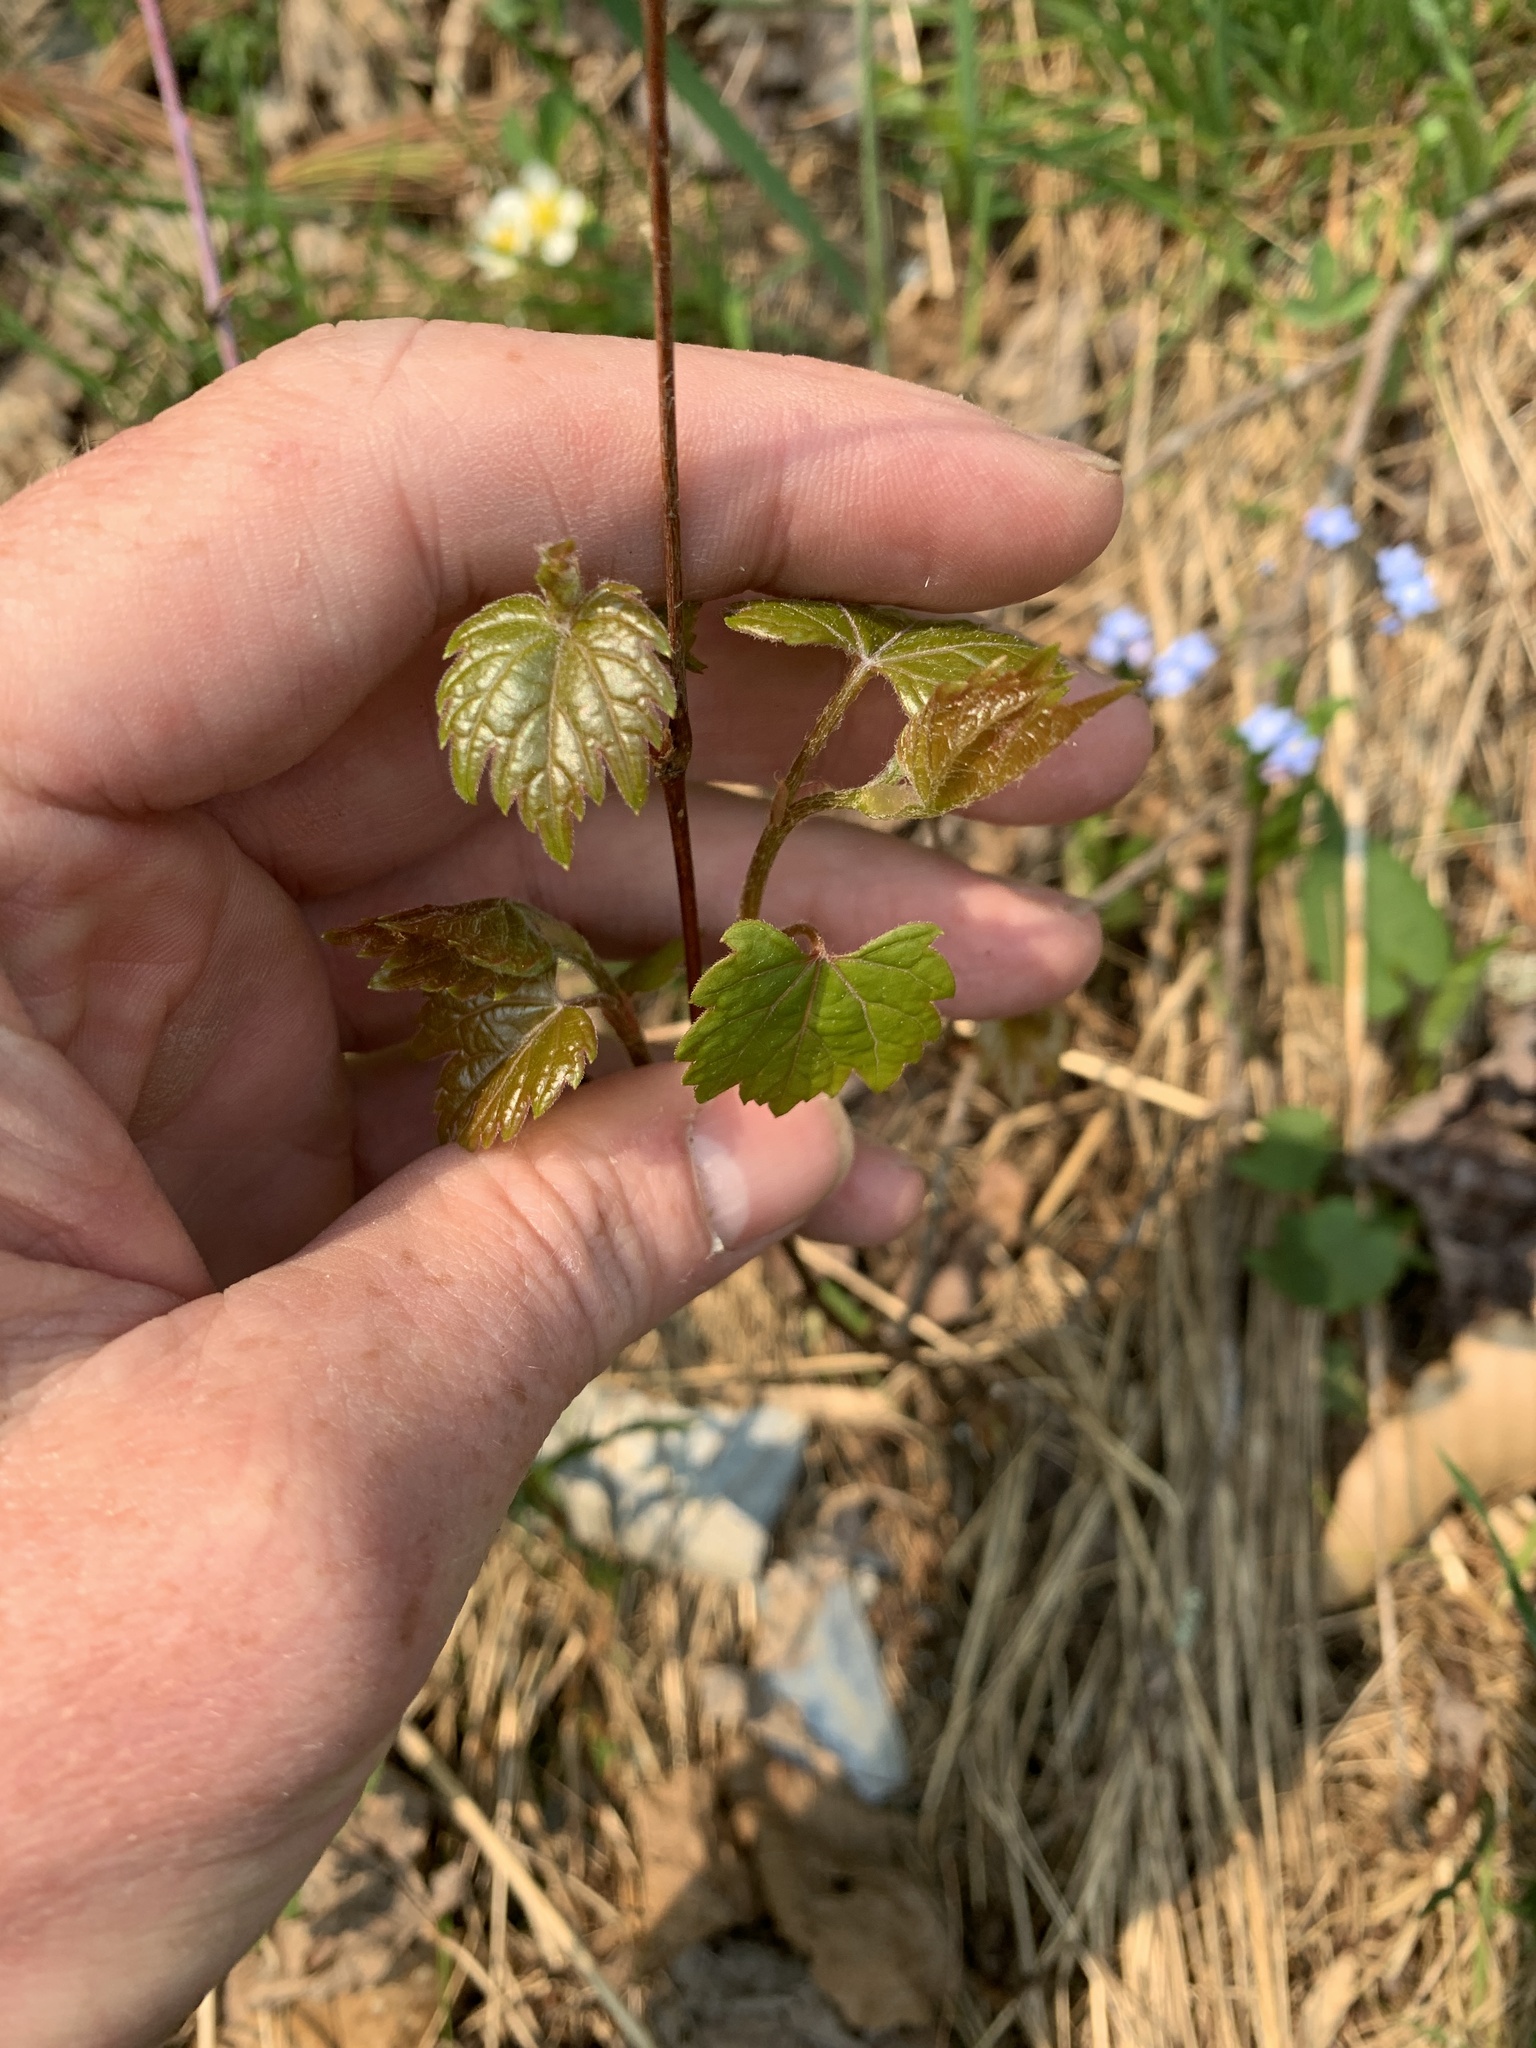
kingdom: Plantae
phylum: Tracheophyta
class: Magnoliopsida
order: Vitales
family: Vitaceae
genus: Vitis
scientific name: Vitis riparia
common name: Frost grape
